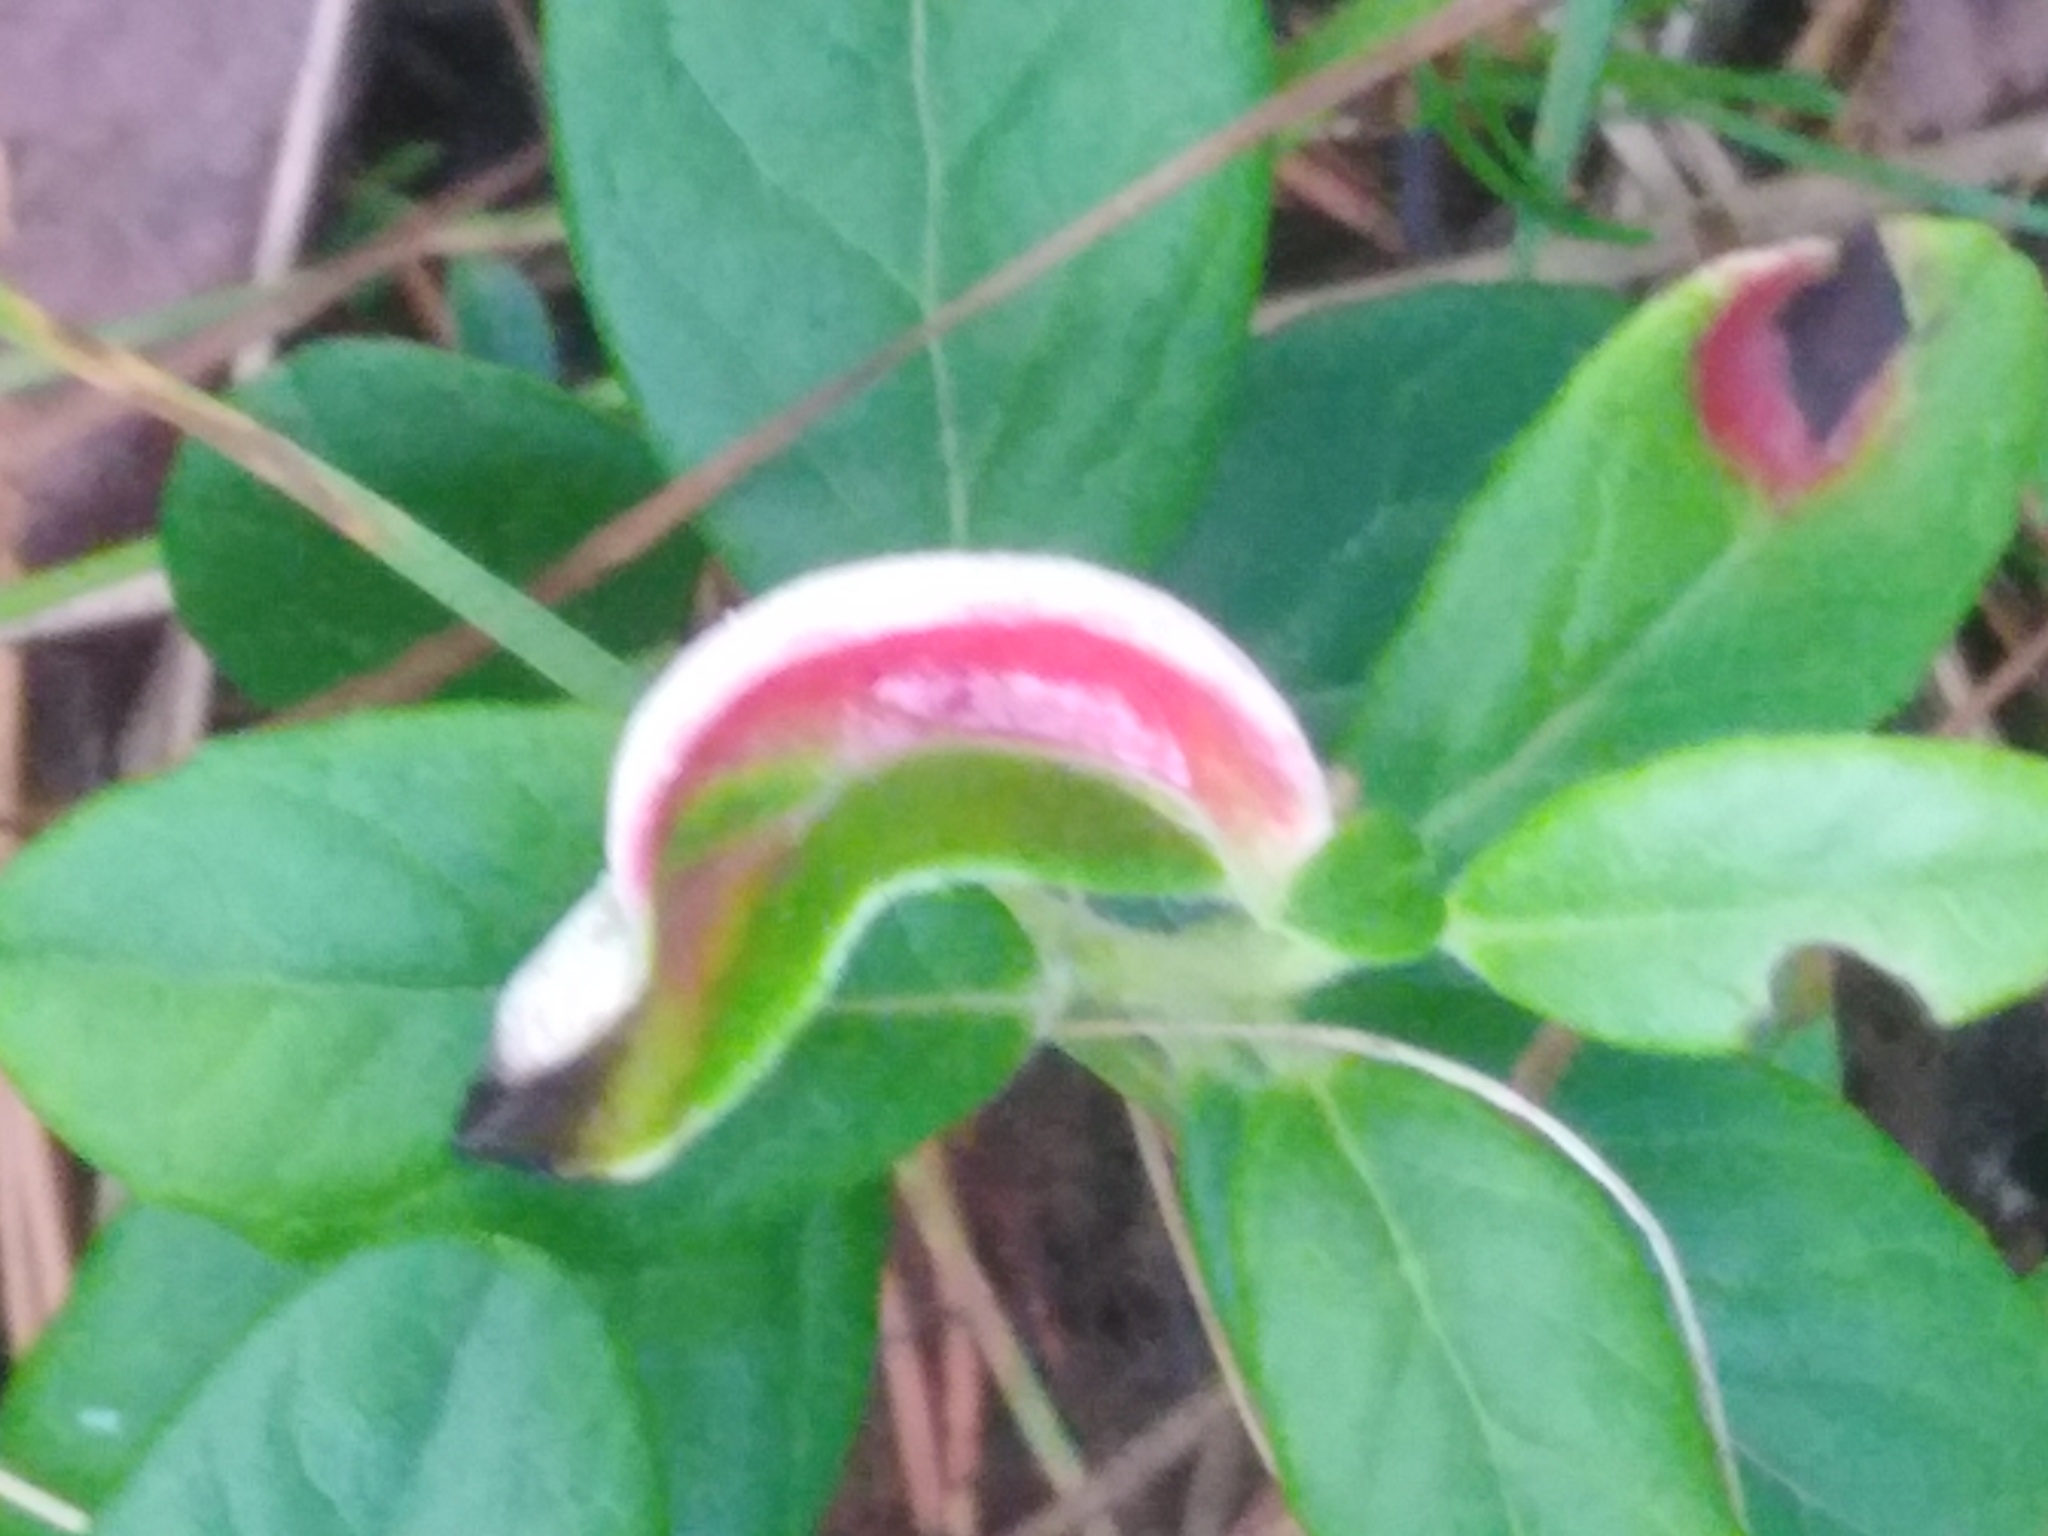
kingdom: Fungi
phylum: Basidiomycota
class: Exobasidiomycetes
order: Exobasidiales
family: Exobasidiaceae
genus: Exobasidium
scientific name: Exobasidium vaccinii
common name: Cowberry redleaf
